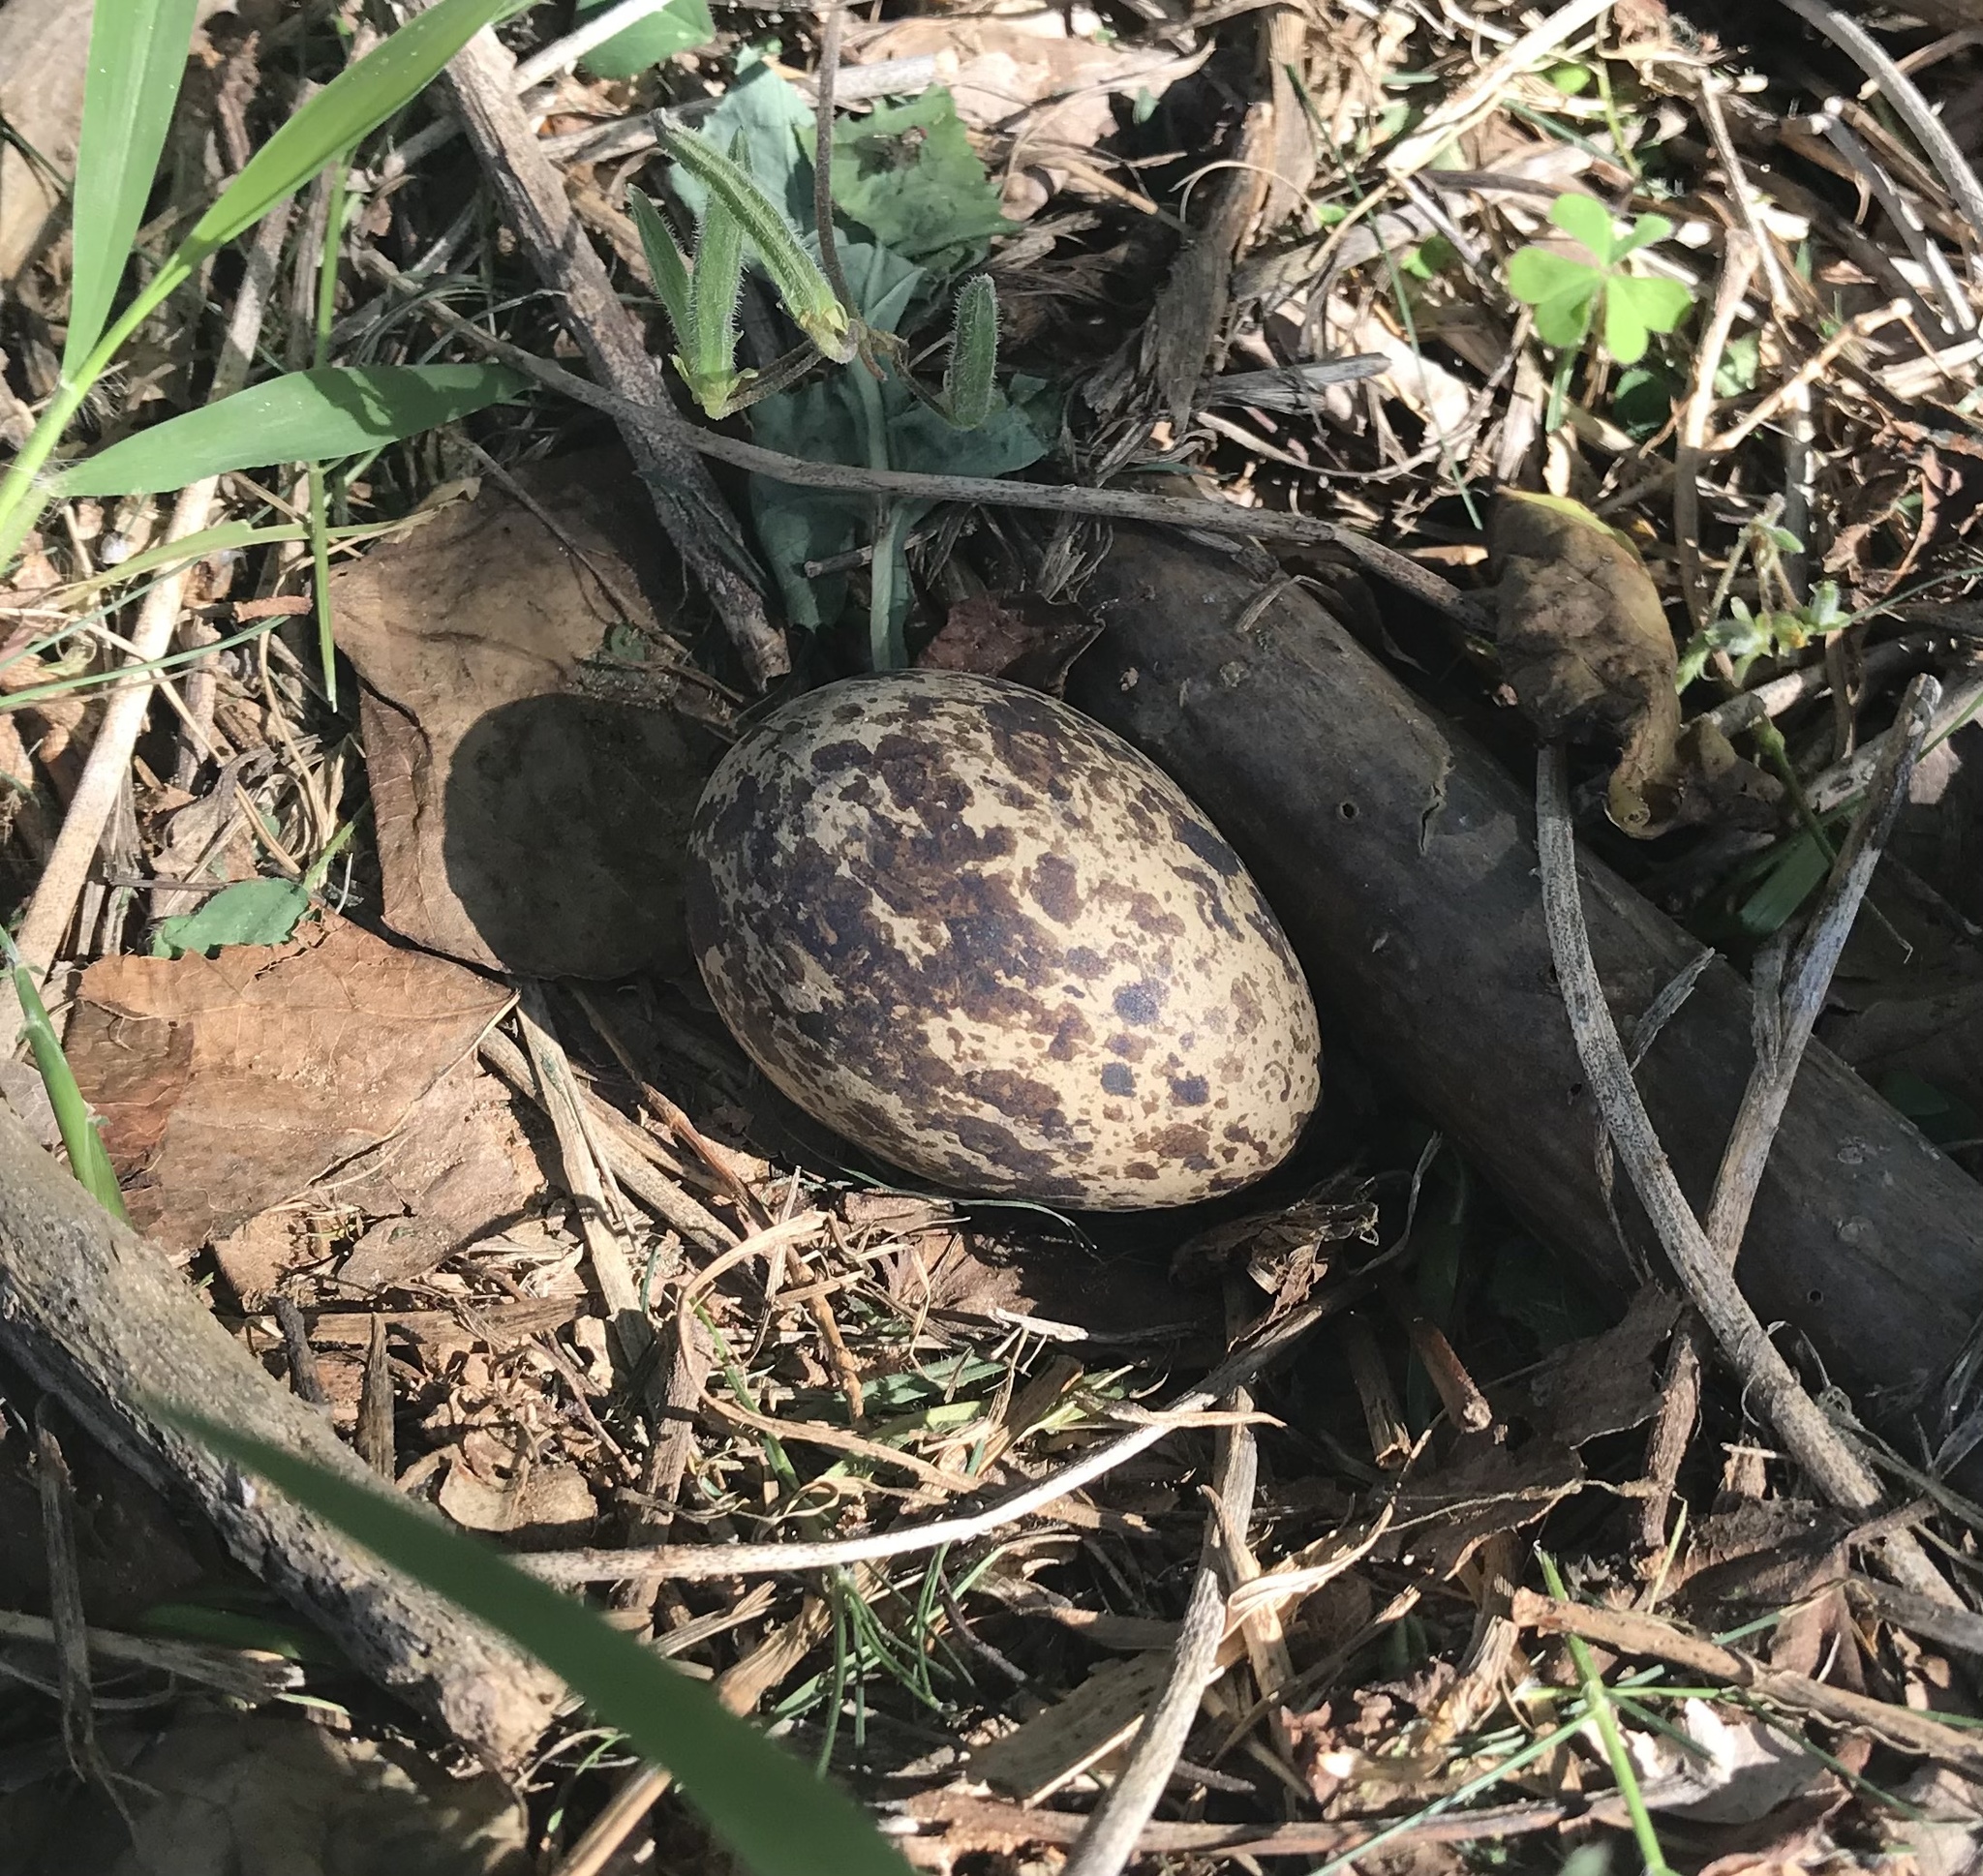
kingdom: Animalia
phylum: Chordata
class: Aves
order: Charadriiformes
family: Burhinidae
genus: Burhinus
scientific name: Burhinus capensis
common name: Spotted thick-knee
